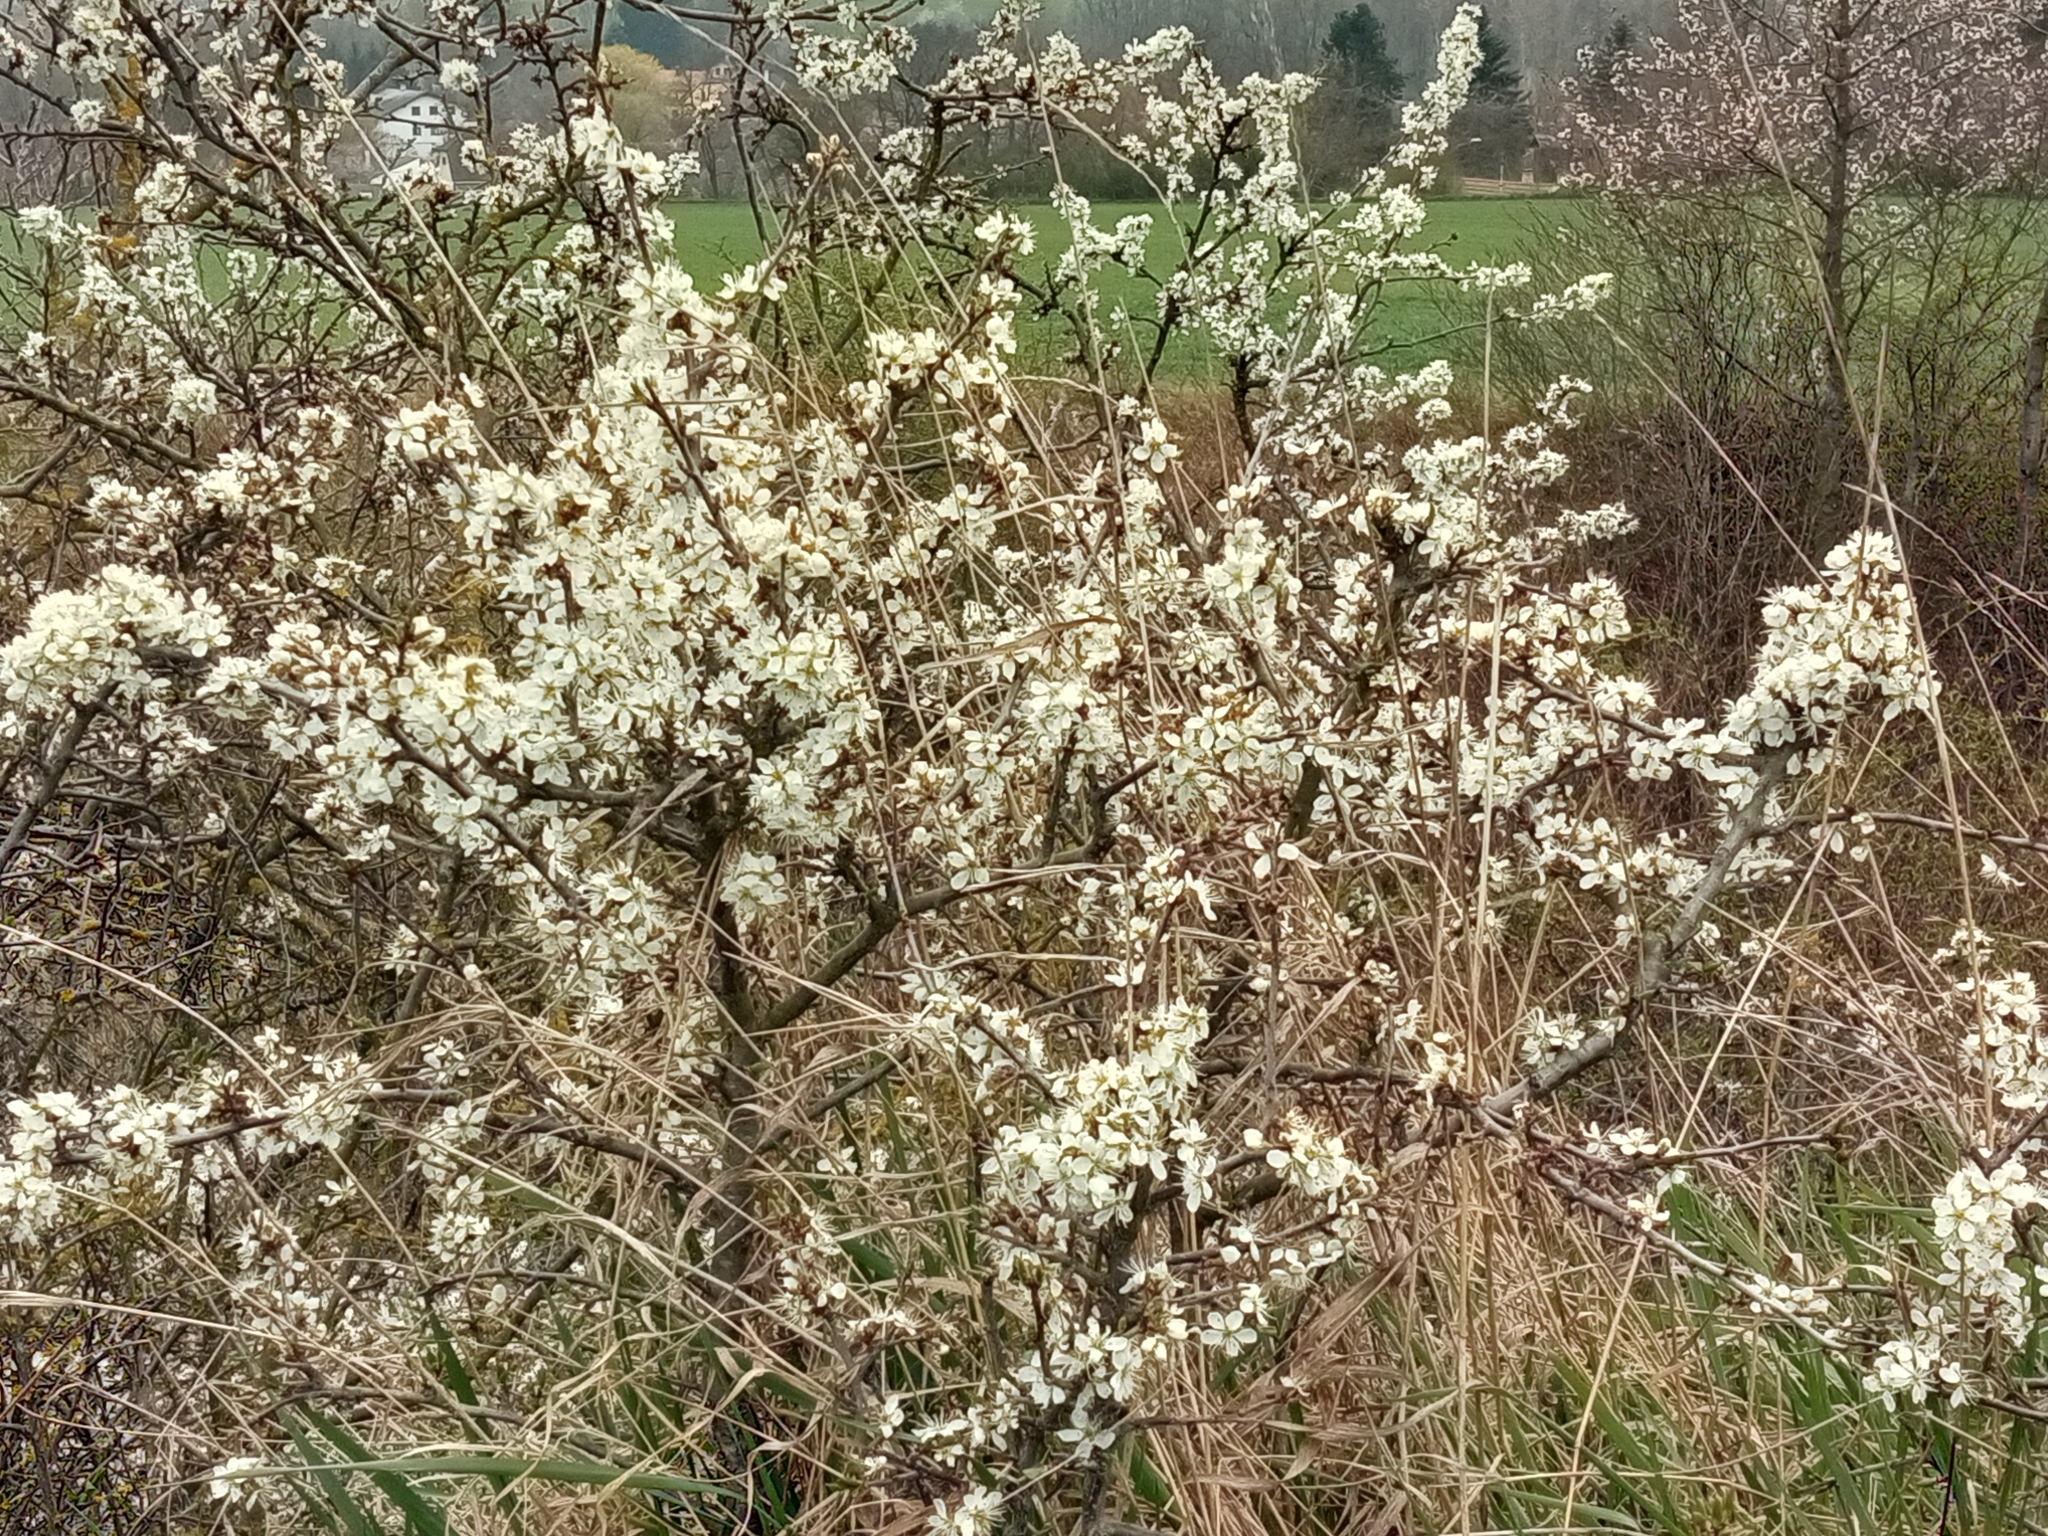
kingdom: Plantae
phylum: Tracheophyta
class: Magnoliopsida
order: Rosales
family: Rosaceae
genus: Prunus
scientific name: Prunus spinosa
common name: Blackthorn
